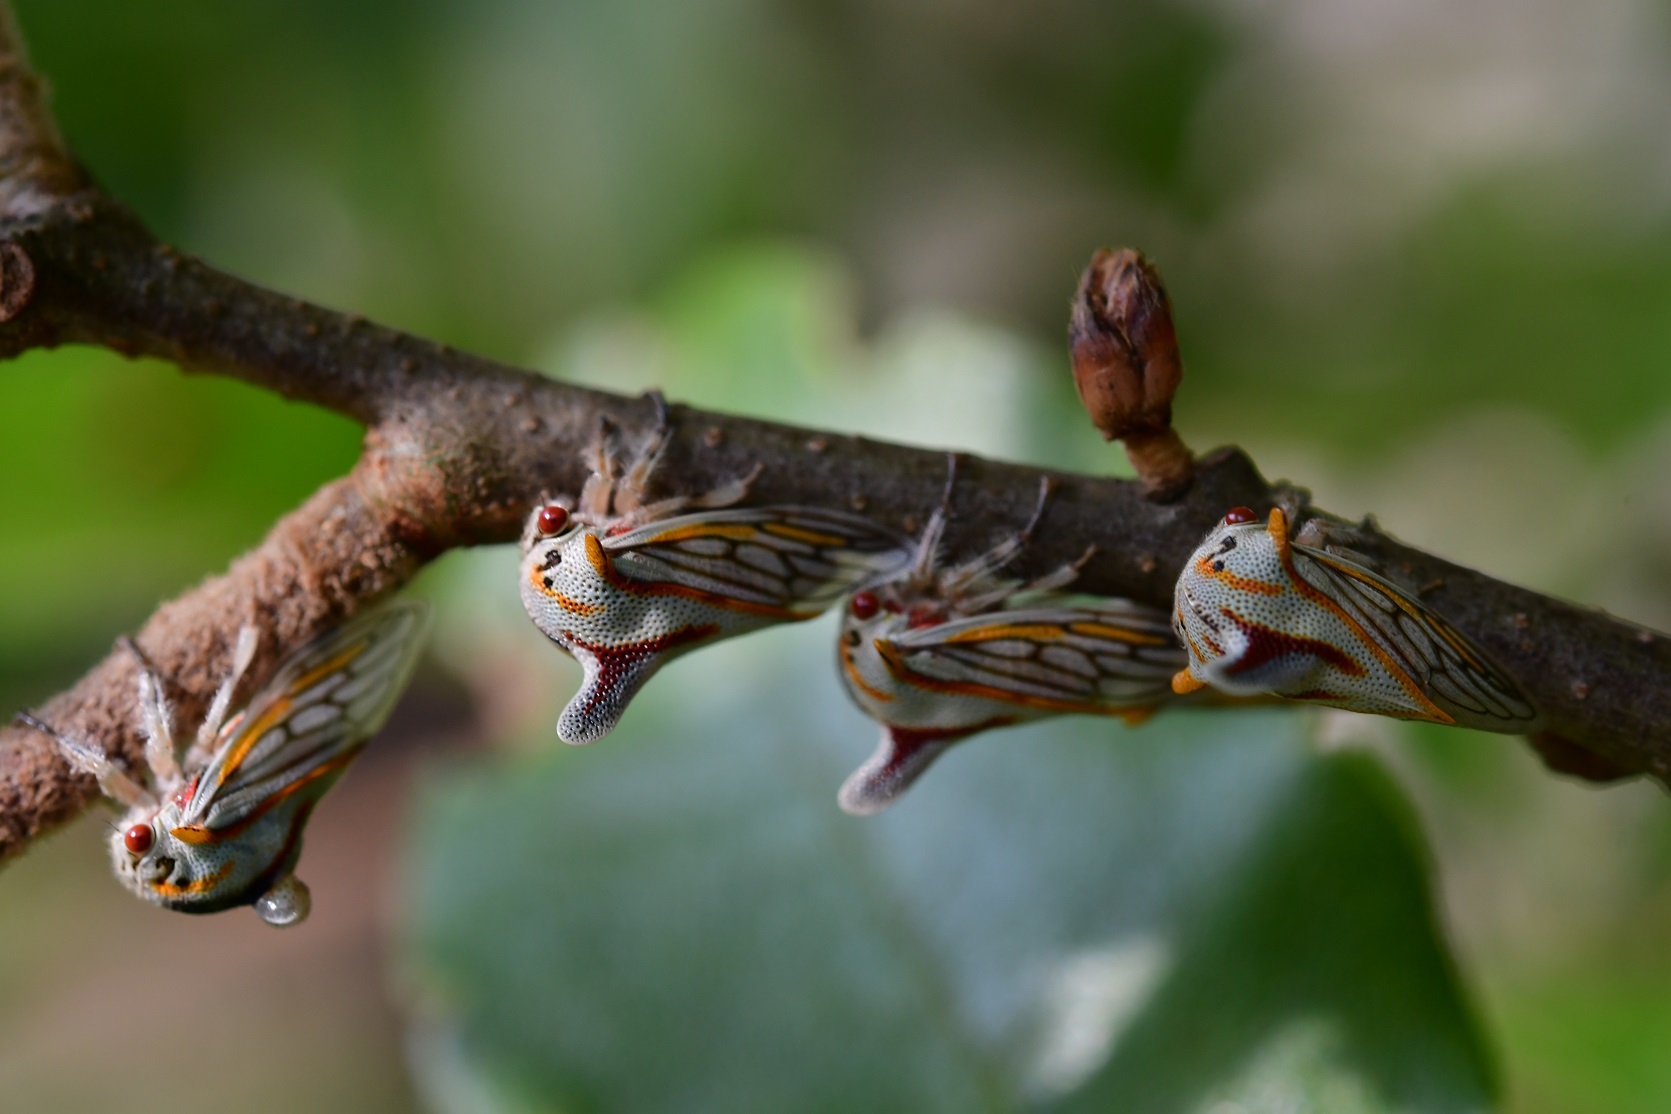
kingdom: Animalia
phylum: Arthropoda
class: Insecta
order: Hemiptera
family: Membracidae
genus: Platycotis
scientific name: Platycotis vittatus
